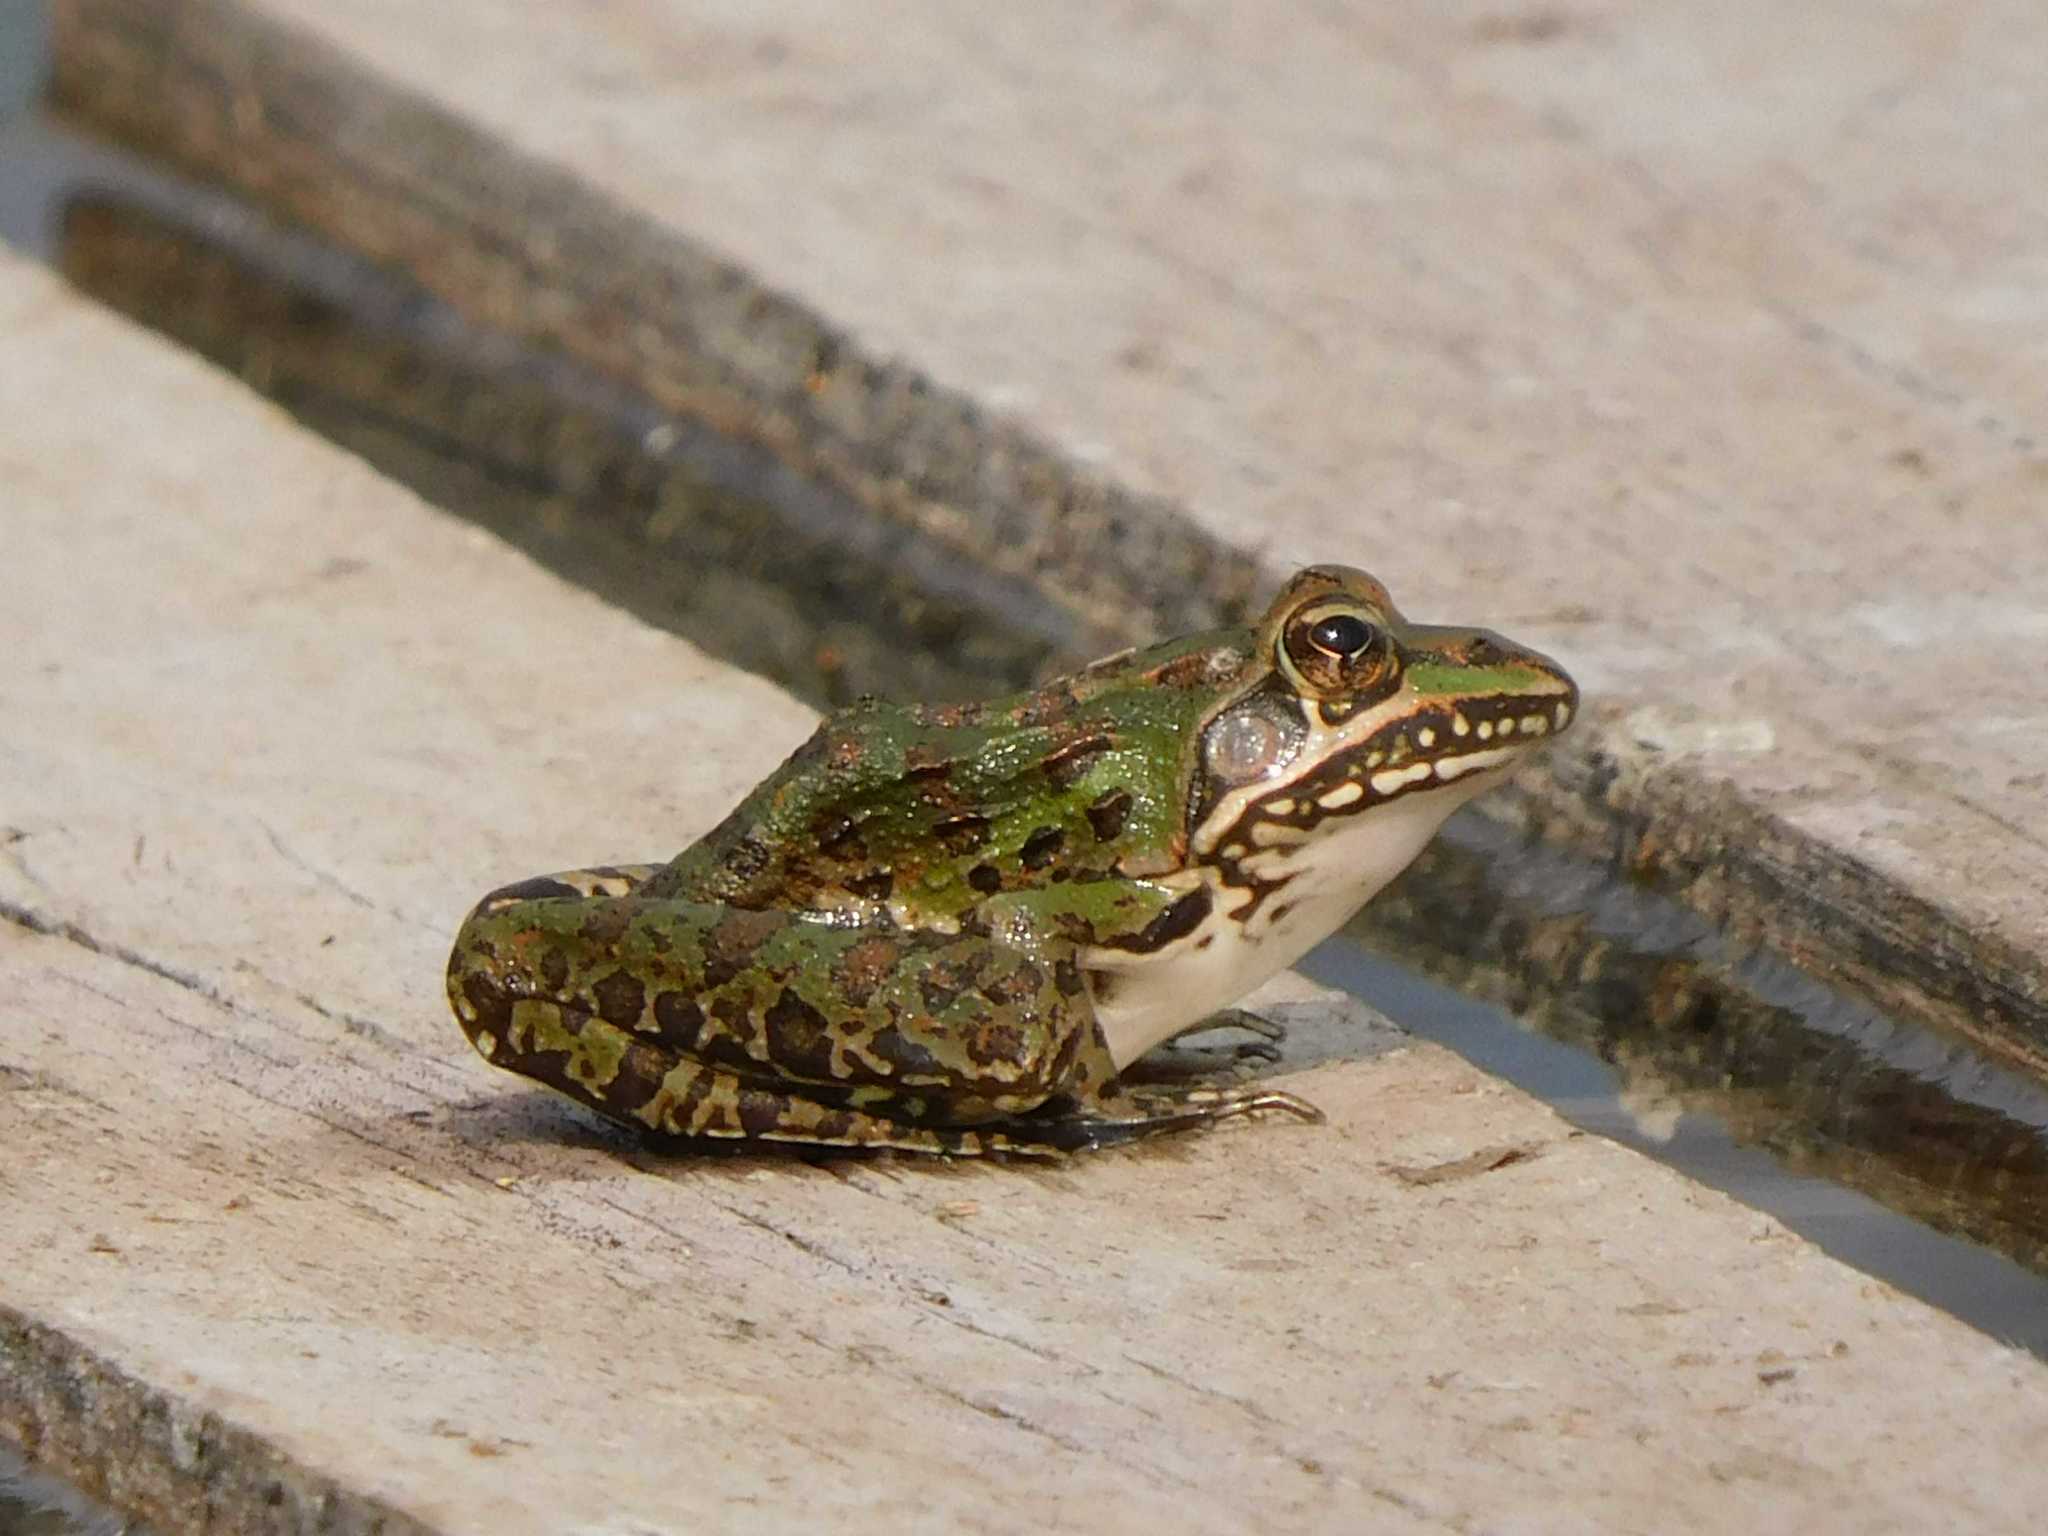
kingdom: Animalia
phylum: Chordata
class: Amphibia
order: Anura
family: Pyxicephalidae
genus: Amietia
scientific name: Amietia delalandii
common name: Delalande's river frog
